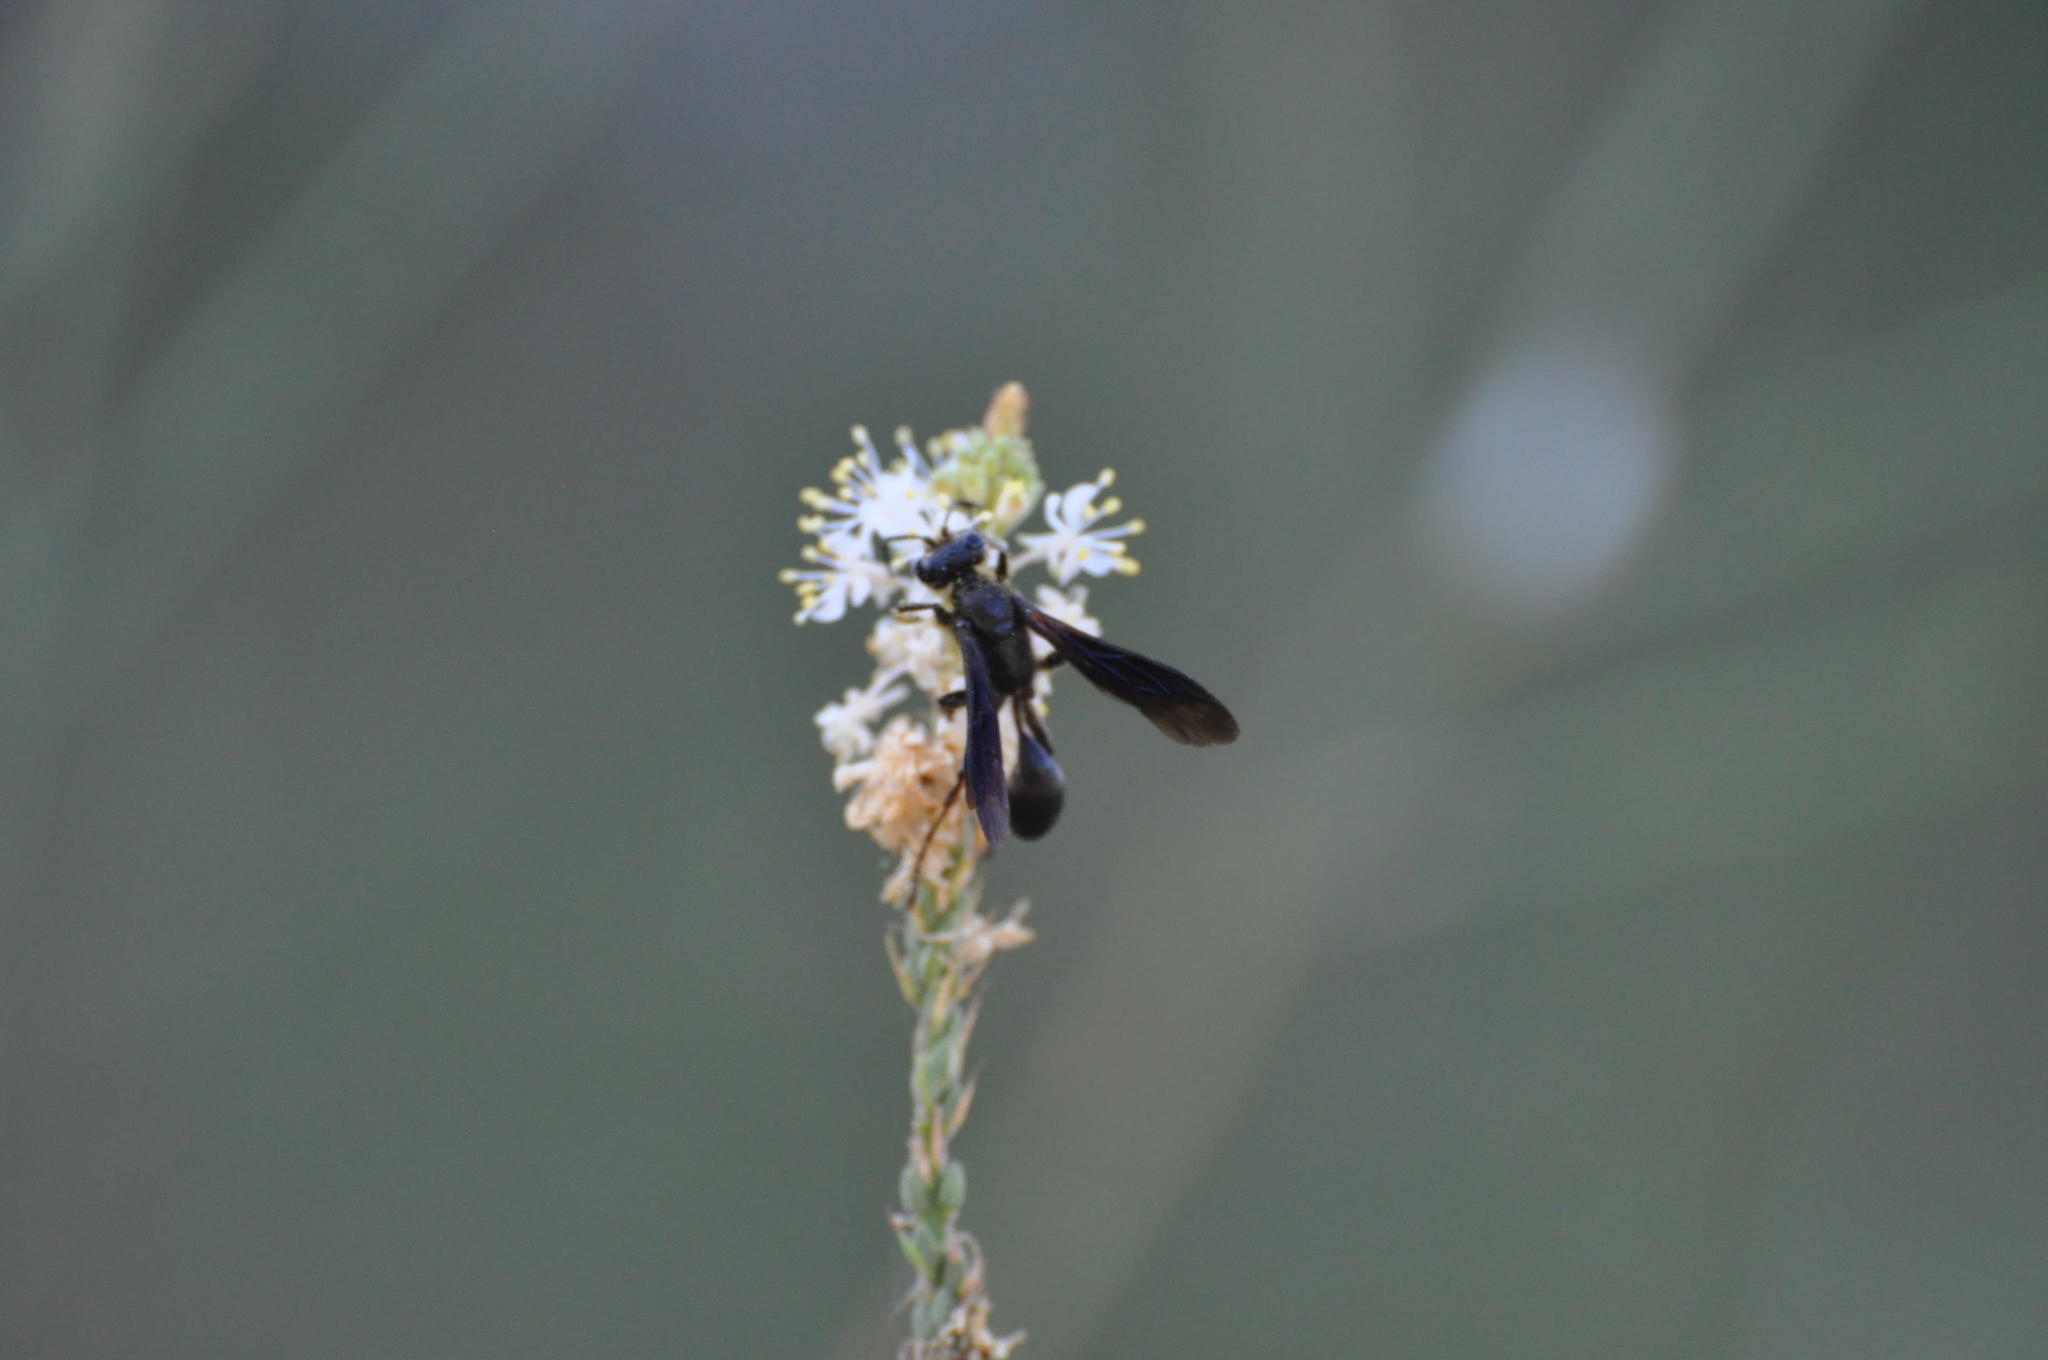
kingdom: Animalia
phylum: Arthropoda
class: Insecta
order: Hymenoptera
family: Sphecidae
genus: Isodontia
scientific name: Isodontia
